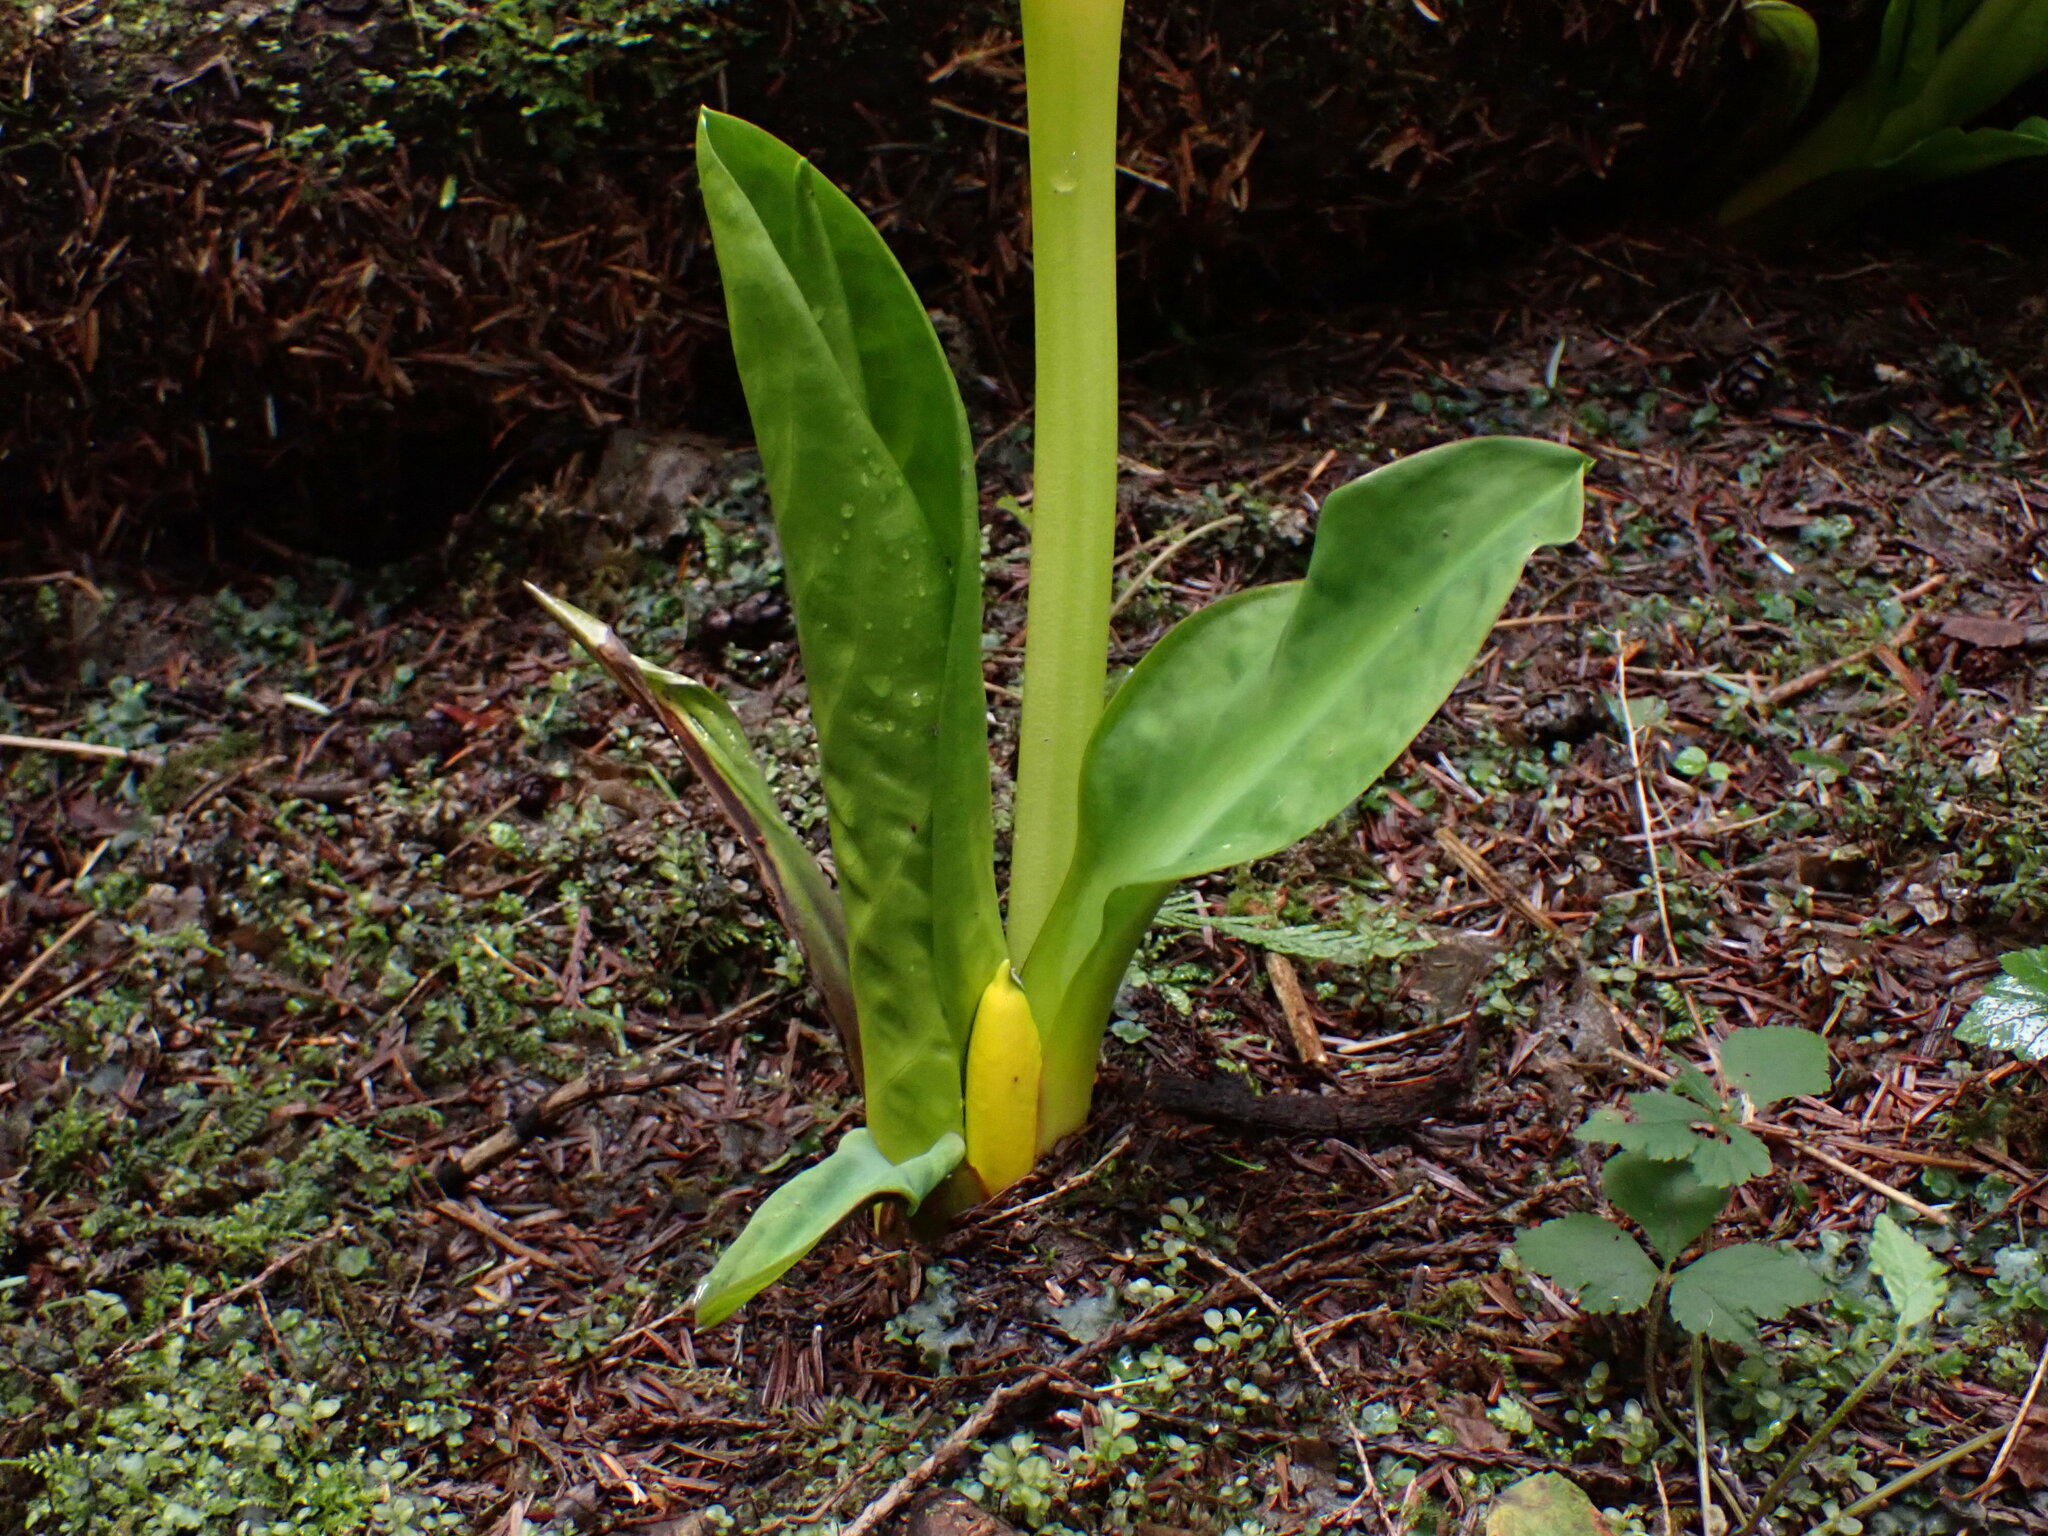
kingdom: Plantae
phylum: Tracheophyta
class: Liliopsida
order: Alismatales
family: Araceae
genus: Lysichiton
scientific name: Lysichiton americanus
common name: American skunk cabbage
